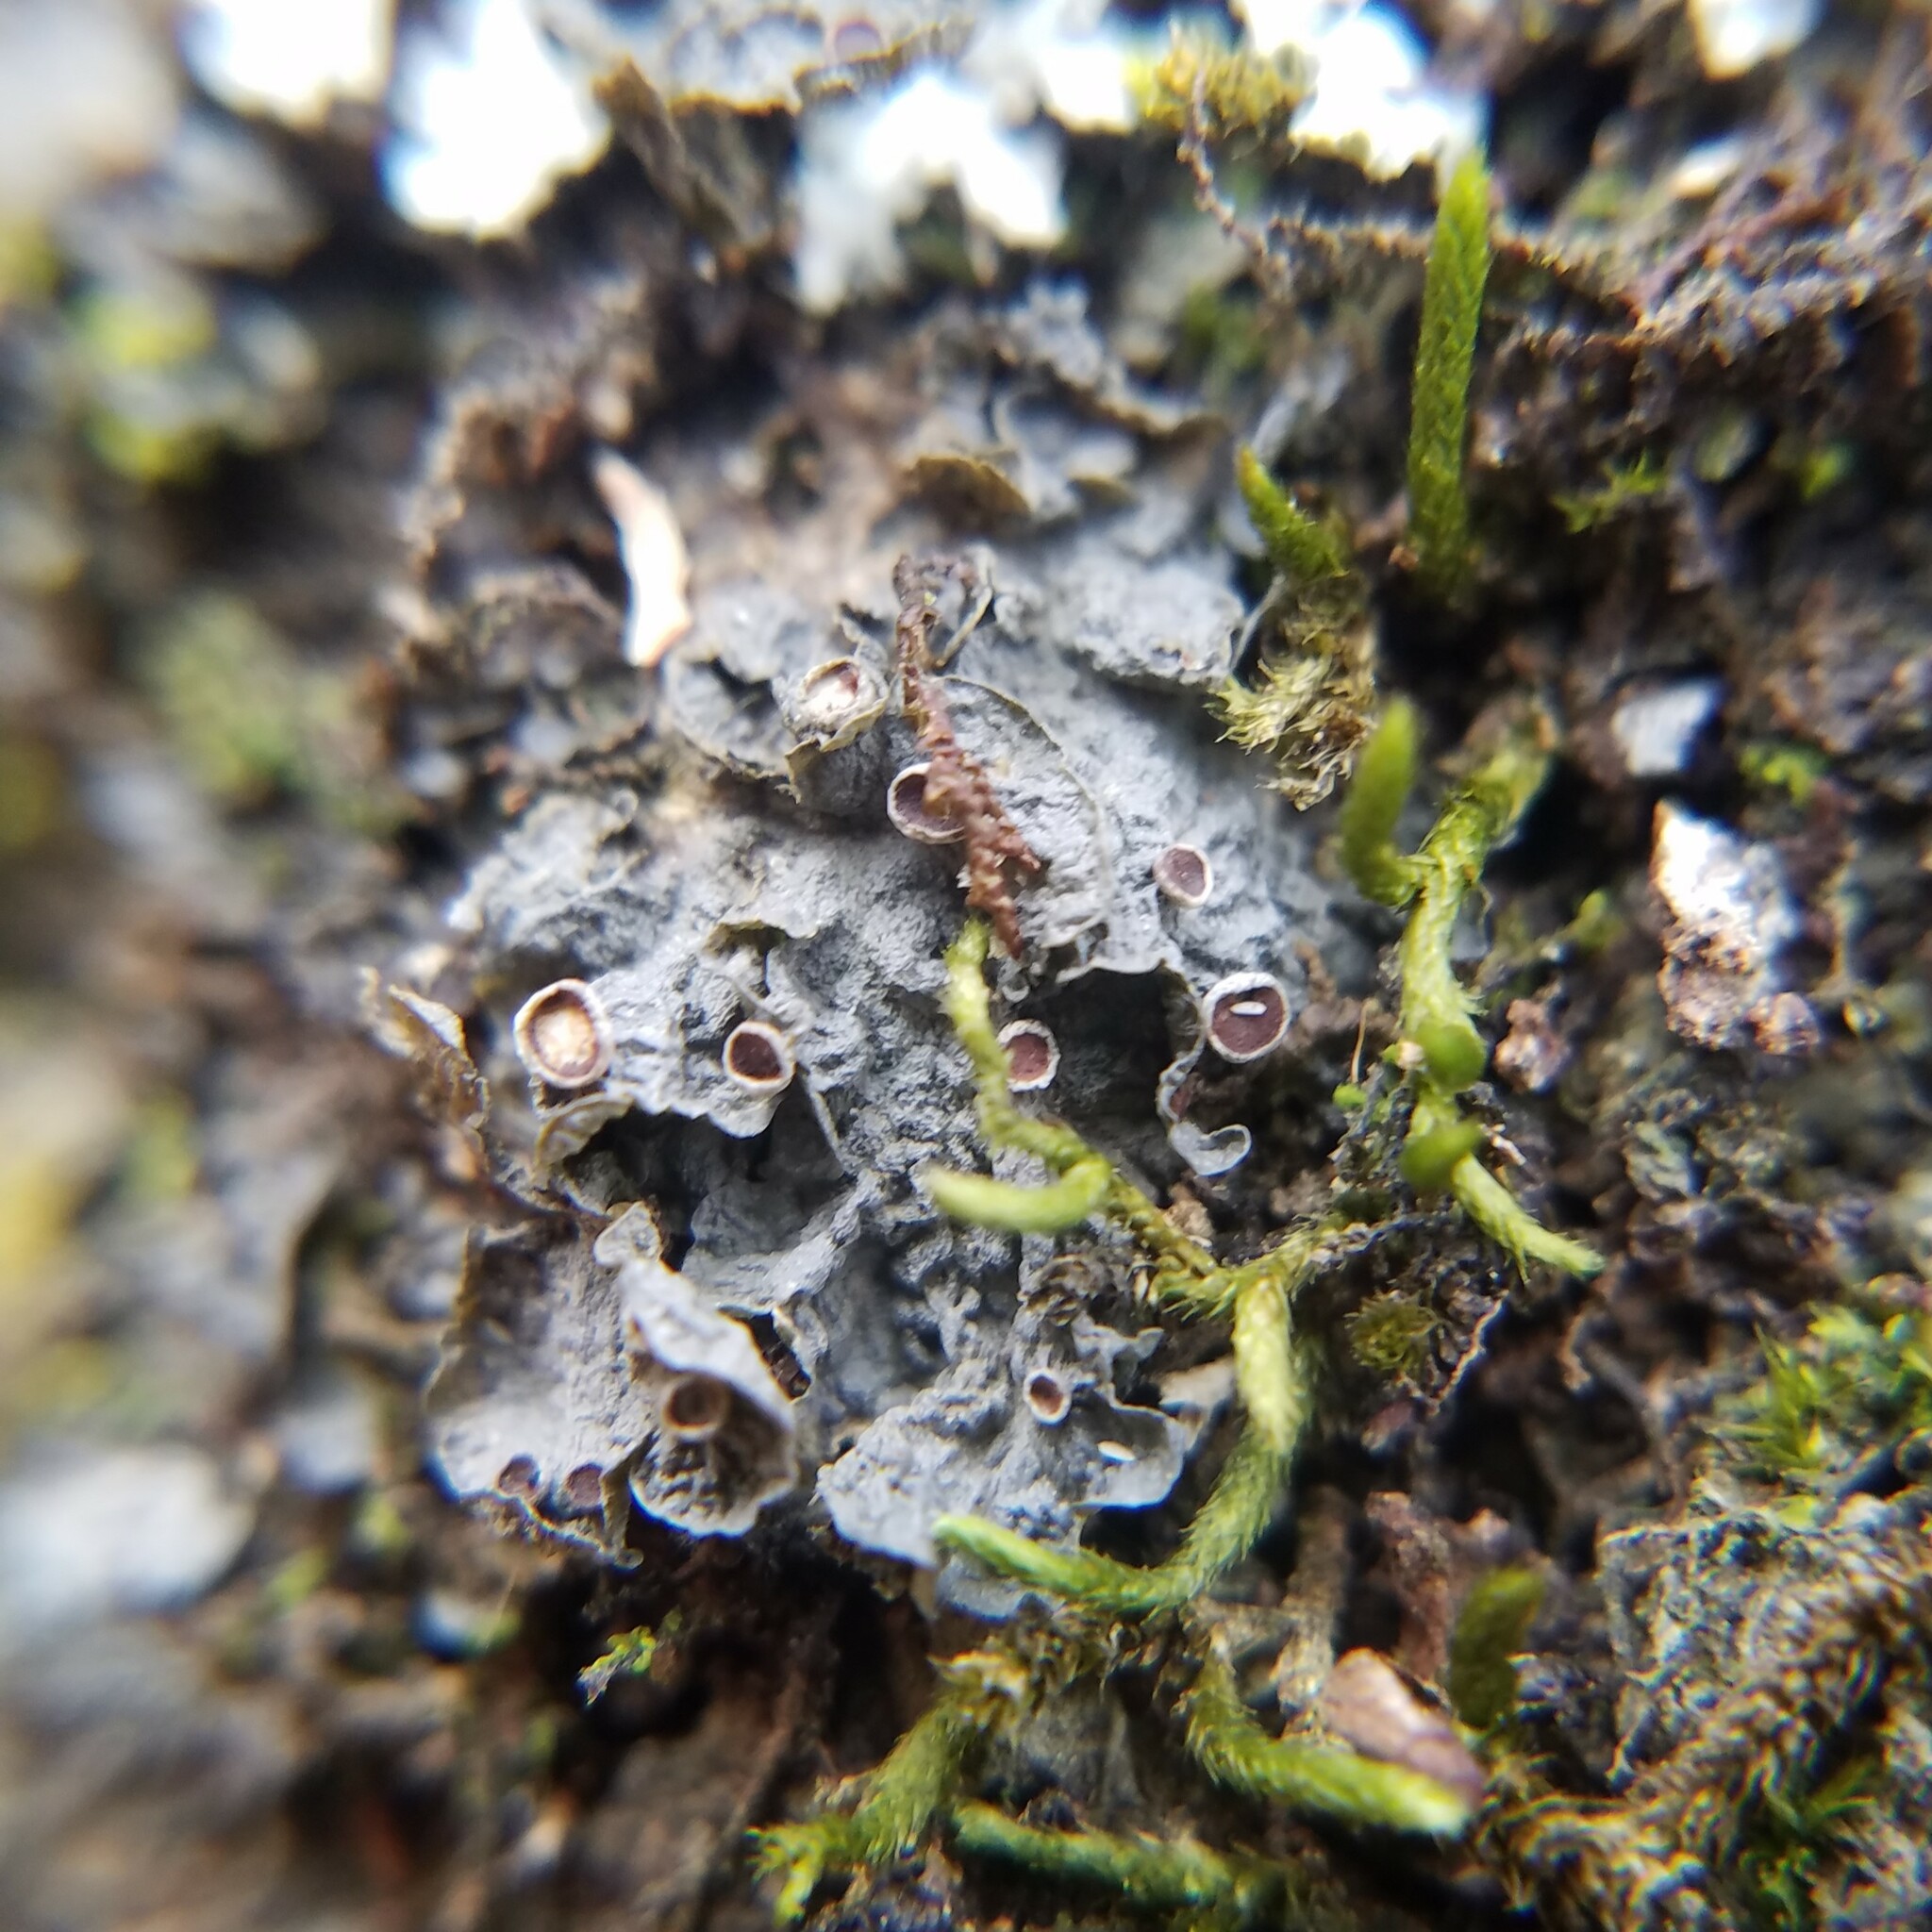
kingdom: Fungi
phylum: Ascomycota
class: Lecanoromycetes
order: Peltigerales
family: Collemataceae
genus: Leptogium
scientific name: Leptogium corticola
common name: Blistered jellyskin lichen
